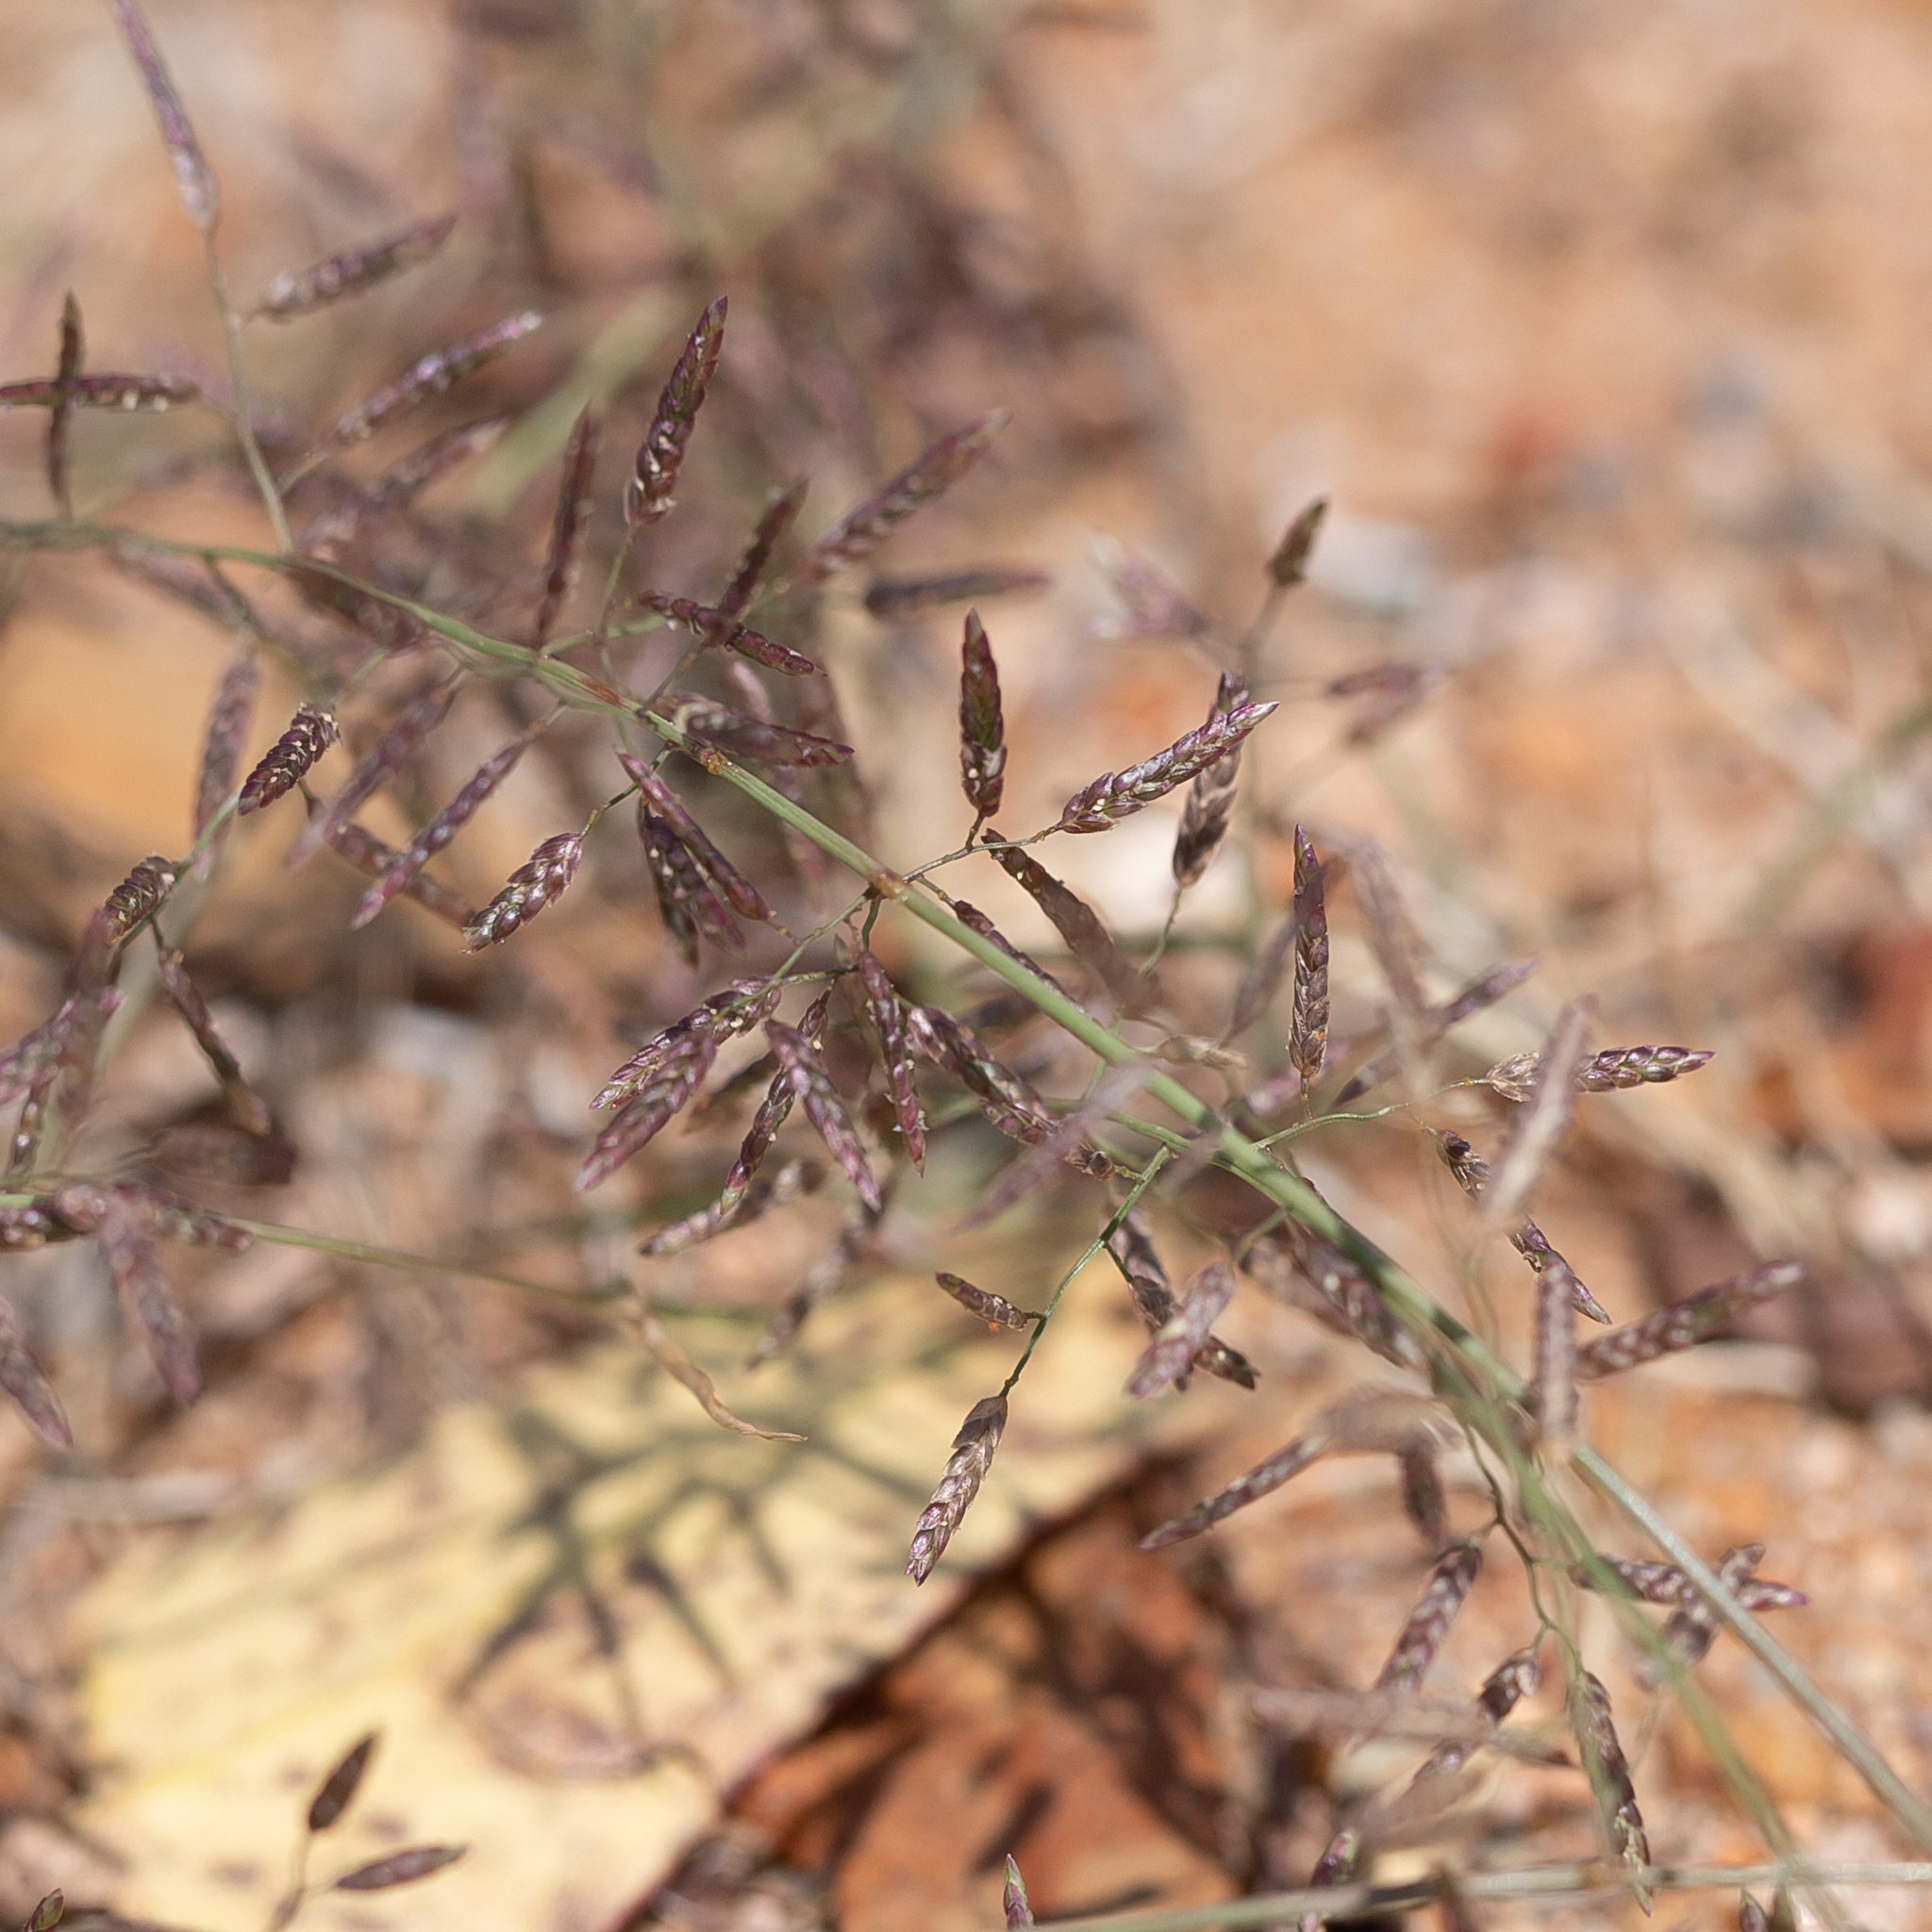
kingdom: Plantae
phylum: Tracheophyta
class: Liliopsida
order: Poales
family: Poaceae
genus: Eragrostis
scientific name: Eragrostis minor
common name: Small love-grass
